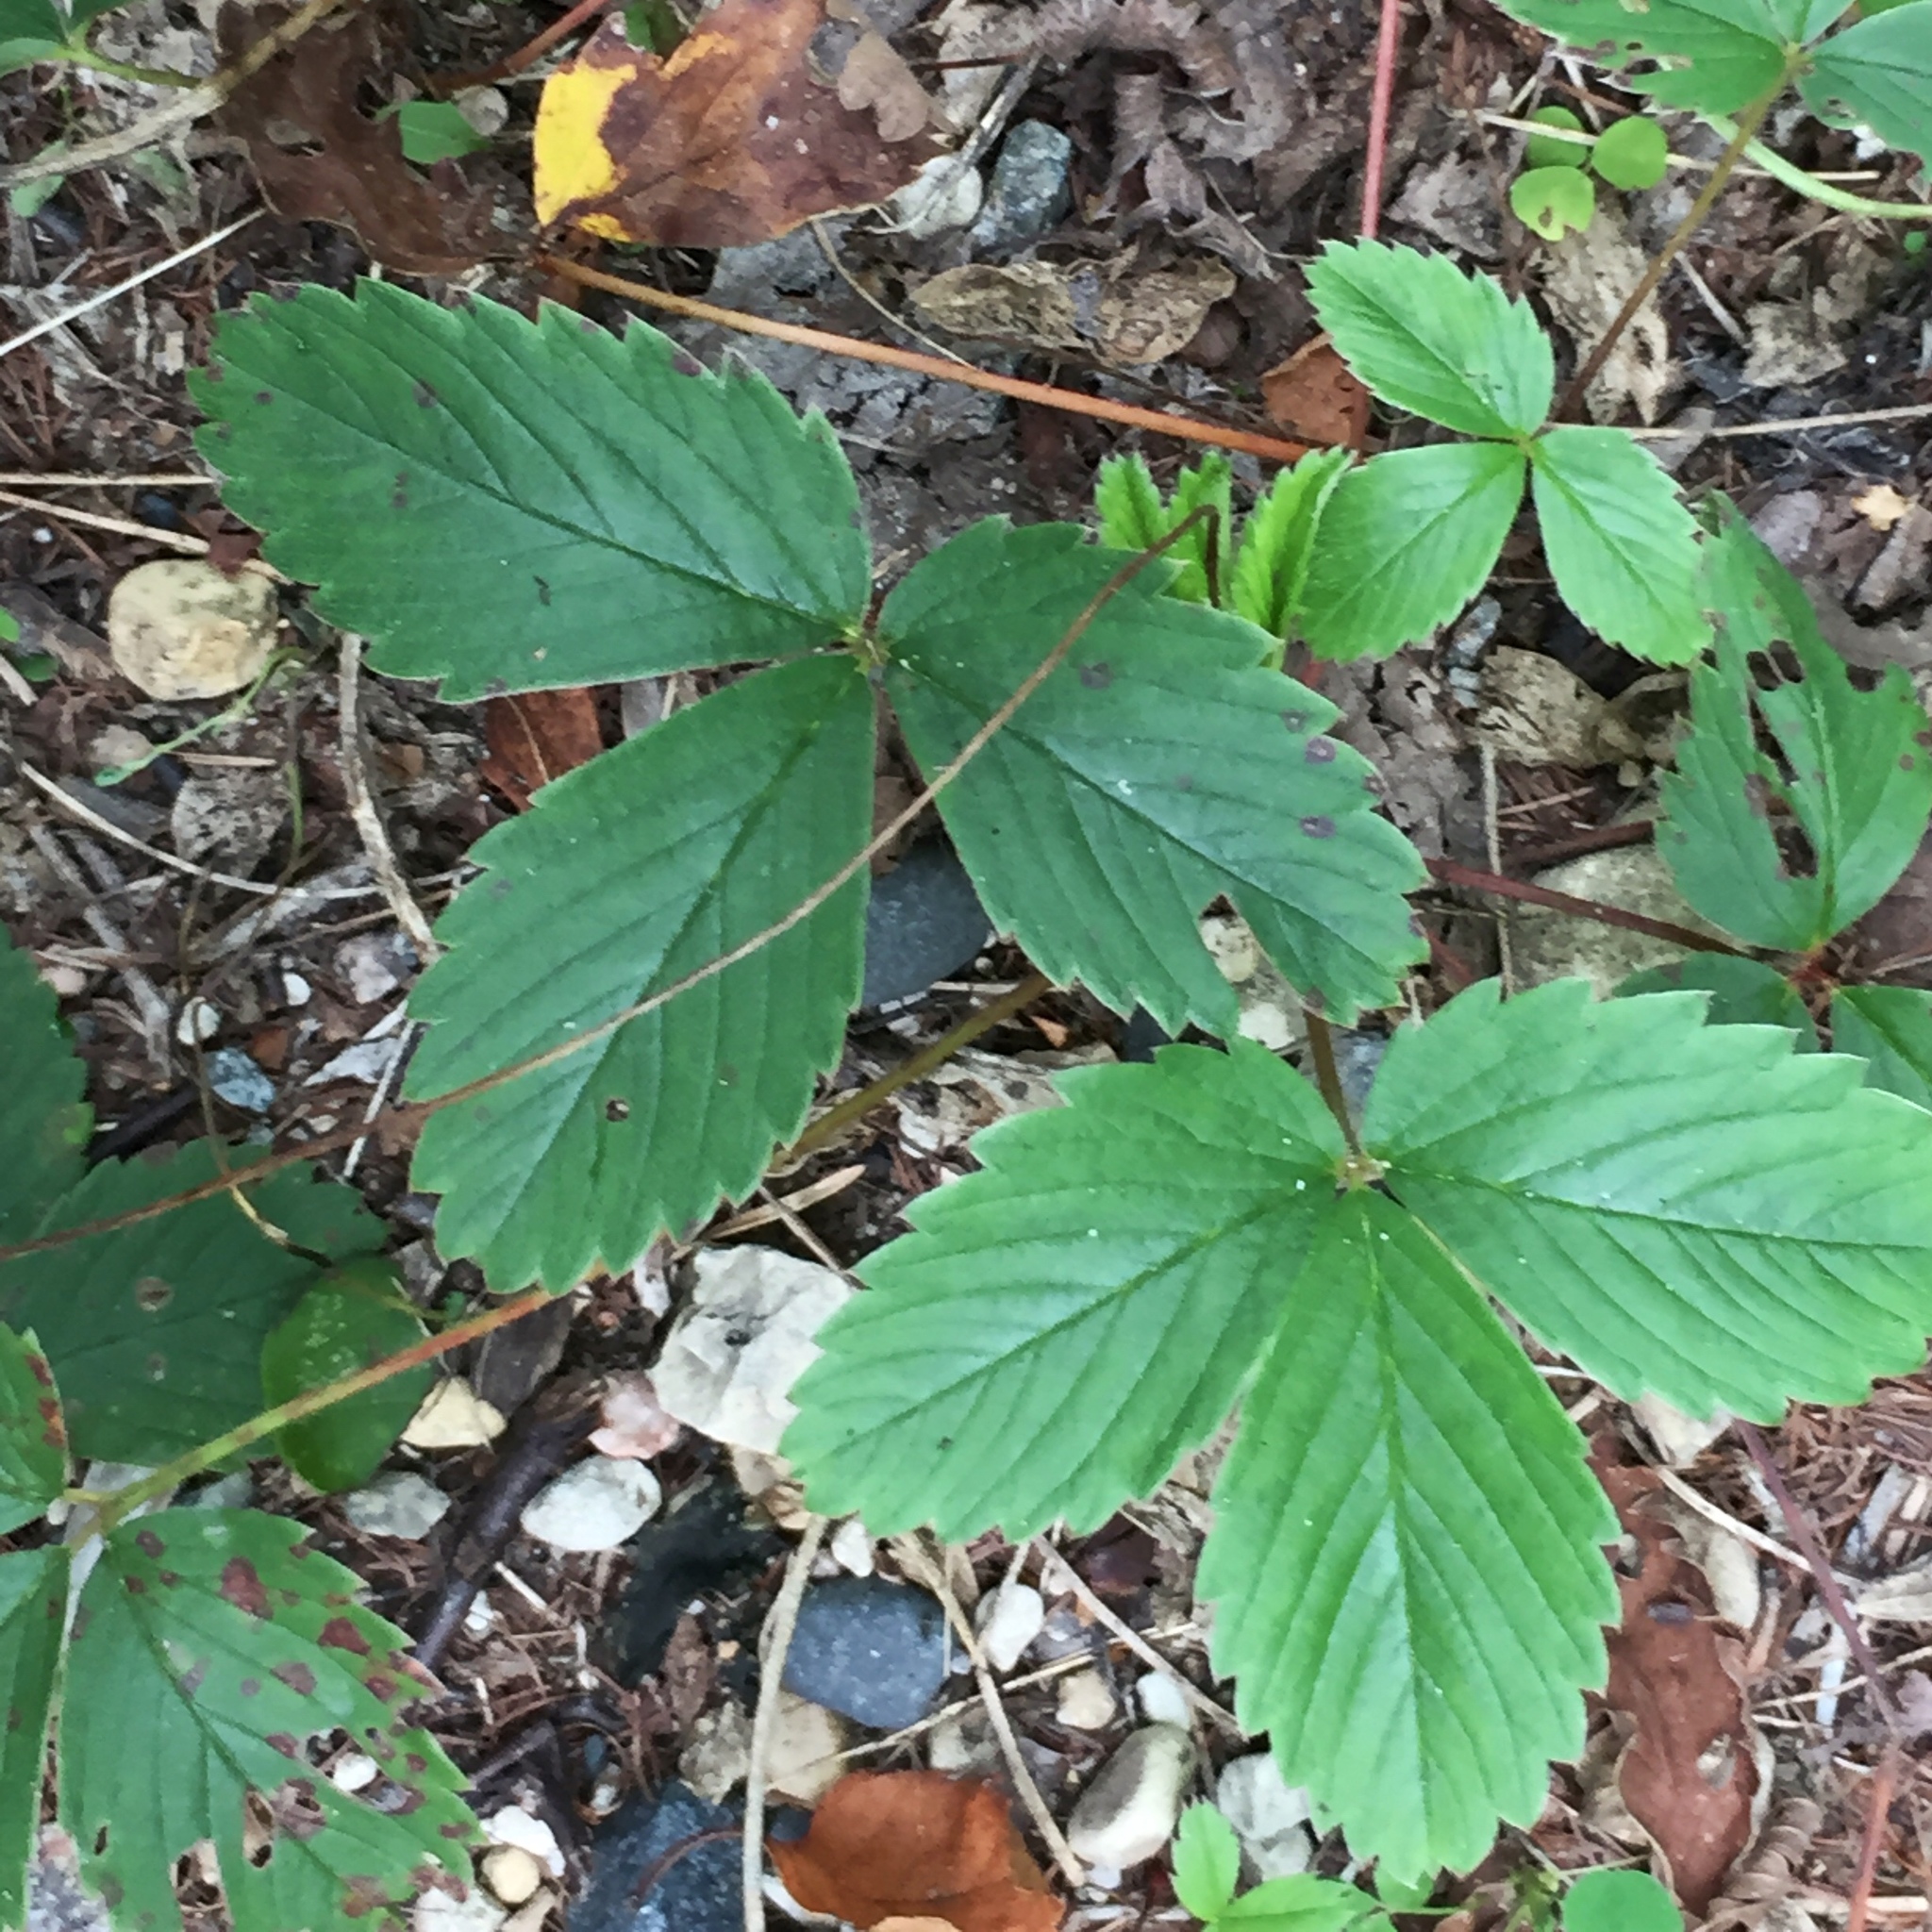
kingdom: Plantae
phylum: Tracheophyta
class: Magnoliopsida
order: Rosales
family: Rosaceae
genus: Fragaria
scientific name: Fragaria virginiana
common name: Thickleaved wild strawberry
